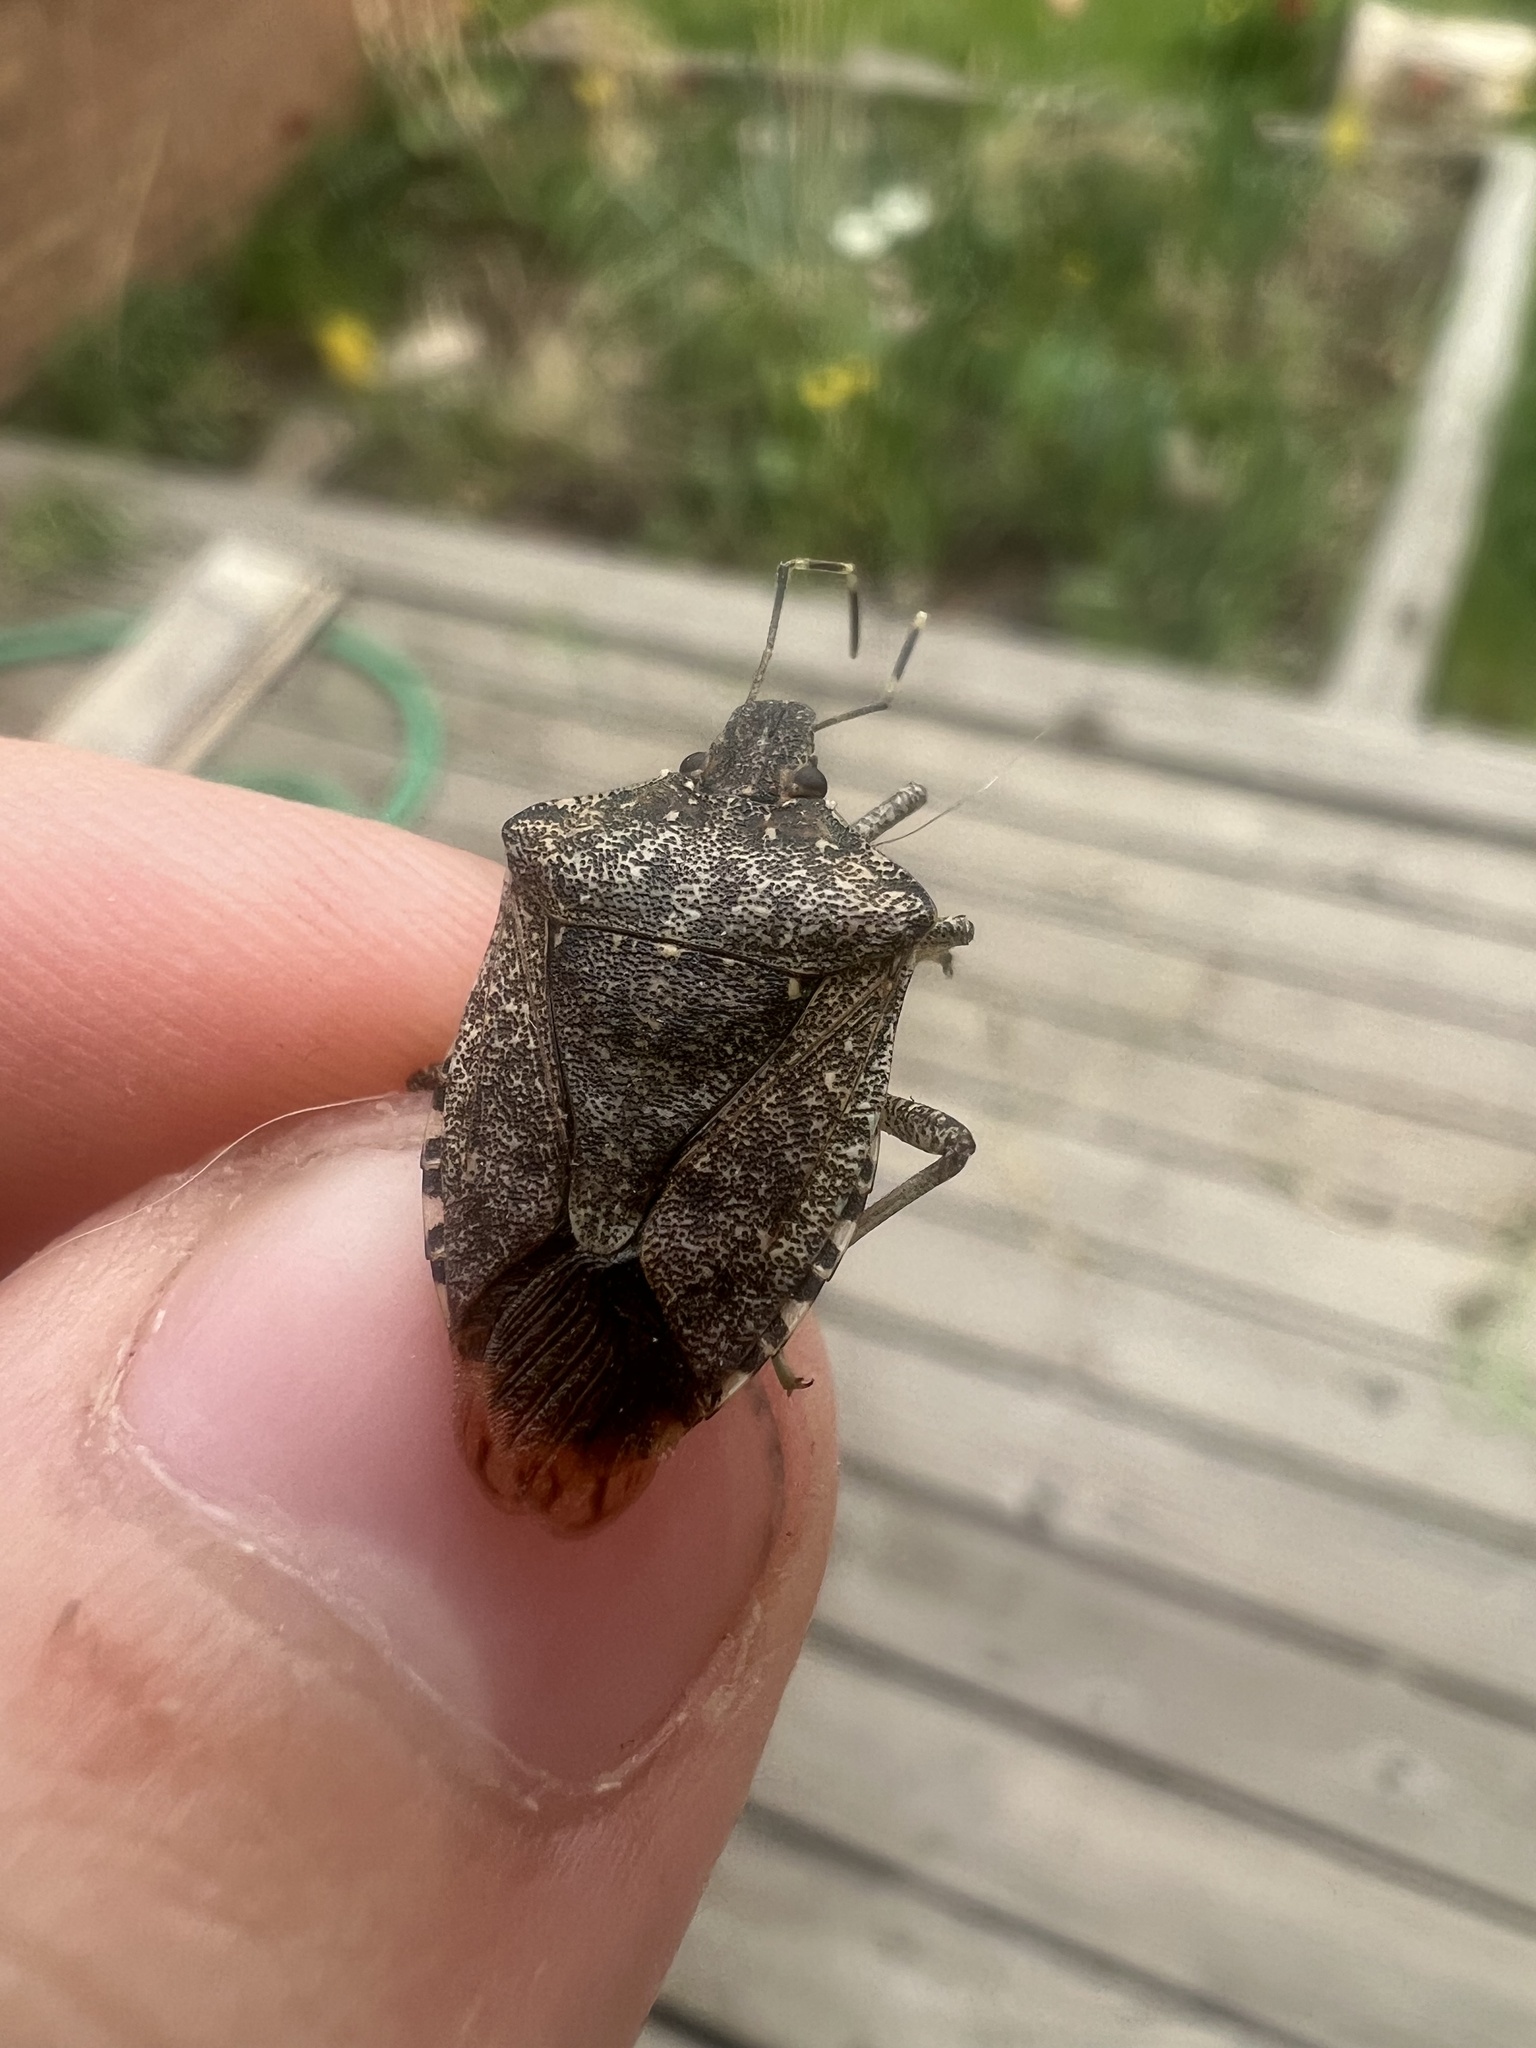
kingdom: Animalia
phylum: Arthropoda
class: Insecta
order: Hemiptera
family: Pentatomidae
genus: Halyomorpha
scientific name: Halyomorpha halys
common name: Brown marmorated stink bug
